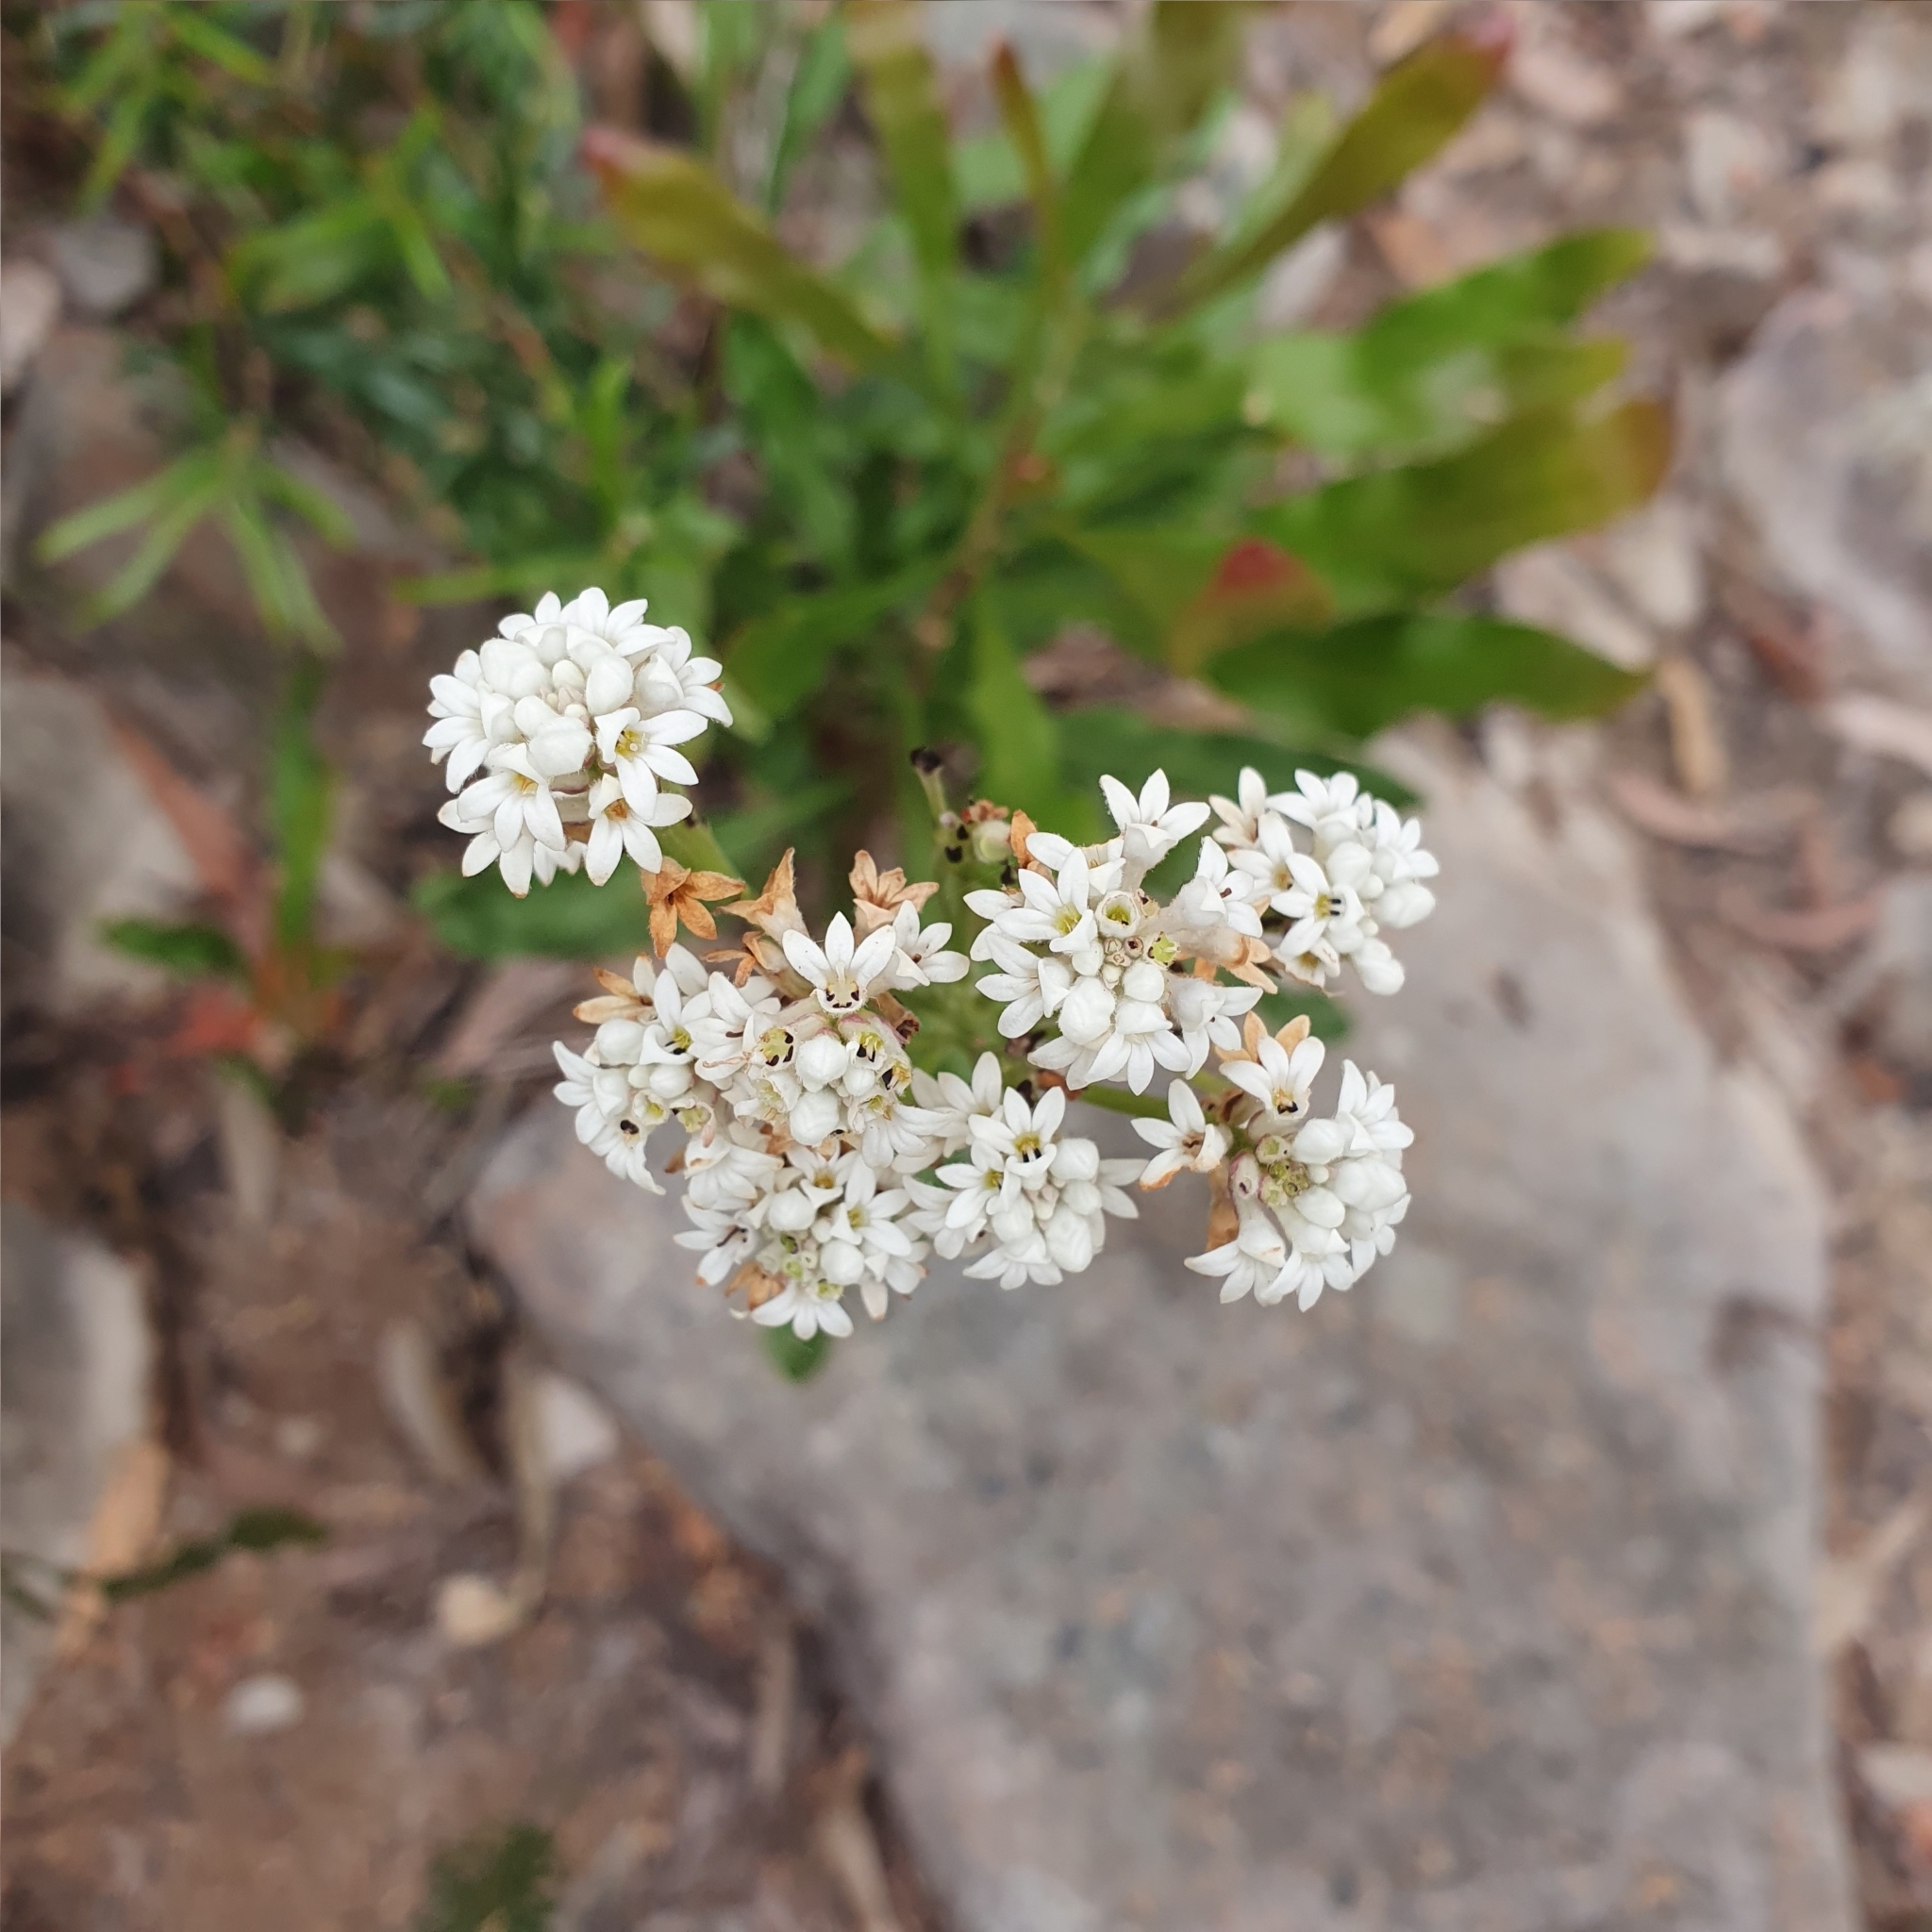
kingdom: Plantae
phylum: Tracheophyta
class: Magnoliopsida
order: Proteales
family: Proteaceae
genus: Conospermum
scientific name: Conospermum longifolium
